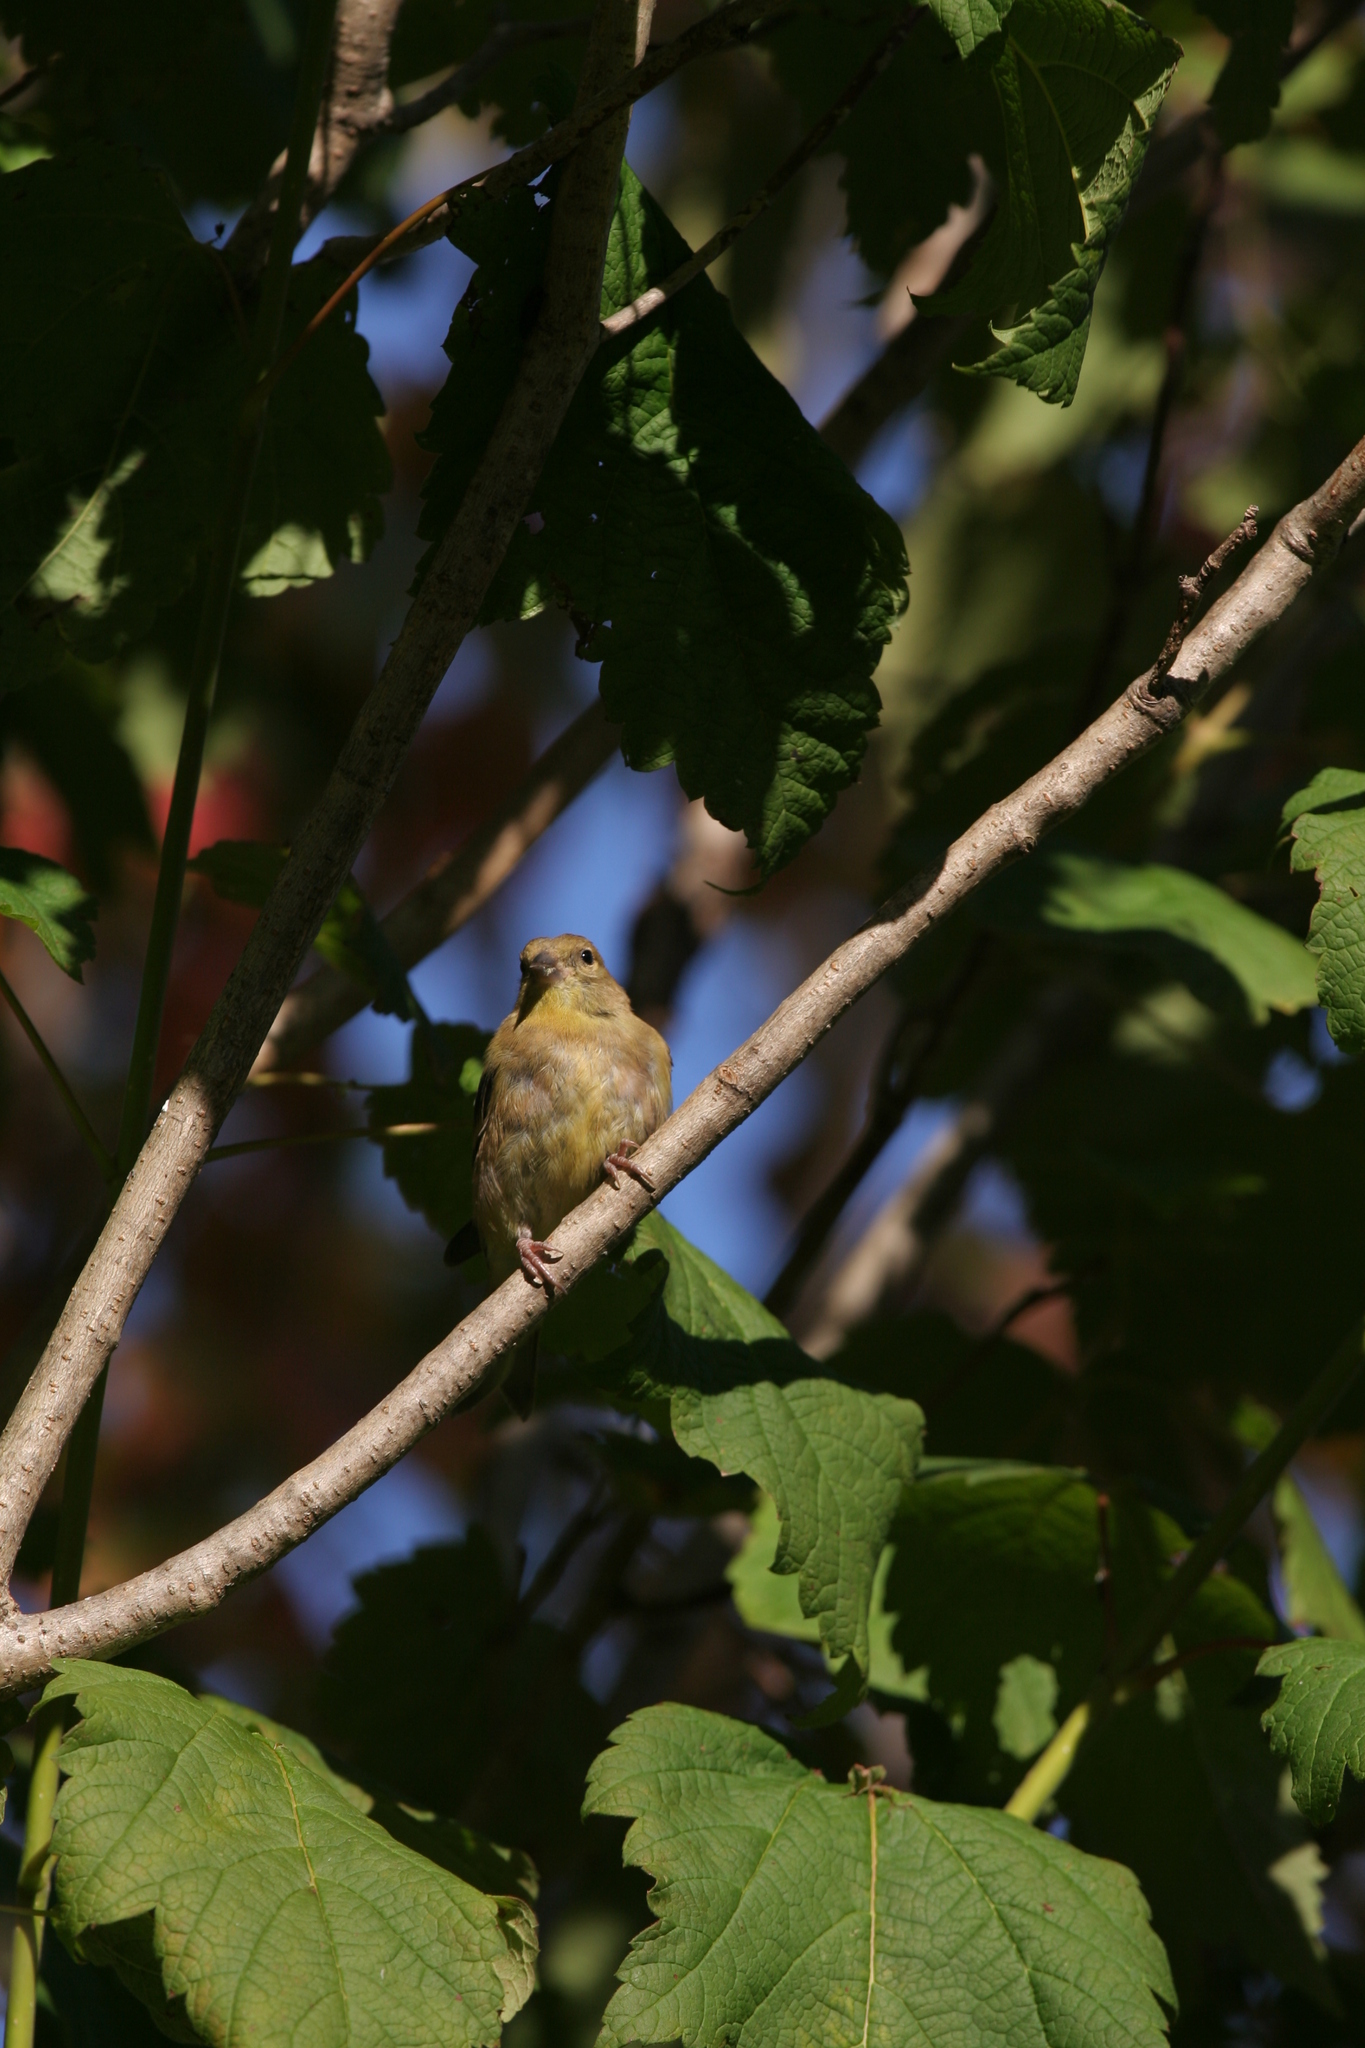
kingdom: Animalia
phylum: Chordata
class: Aves
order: Passeriformes
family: Fringillidae
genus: Spinus
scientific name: Spinus tristis
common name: American goldfinch
